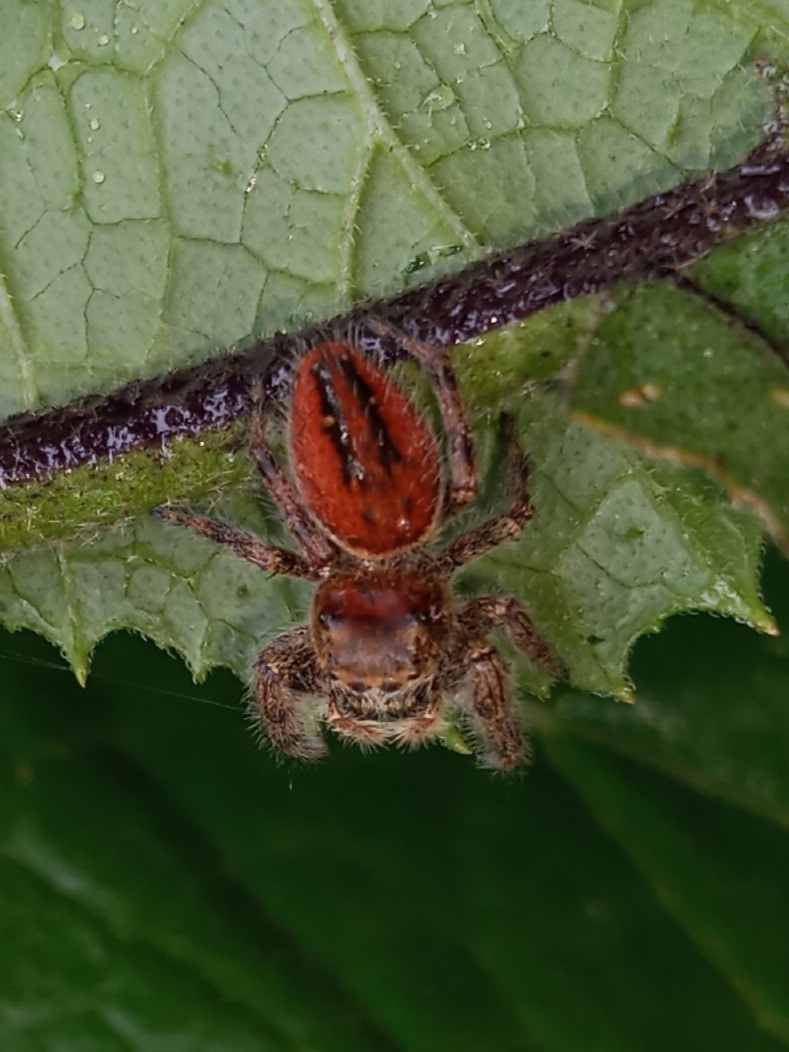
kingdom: Animalia
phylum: Arthropoda
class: Arachnida
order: Araneae
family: Salticidae
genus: Phidippus
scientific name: Phidippus clarus
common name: Brilliant jumping spider
